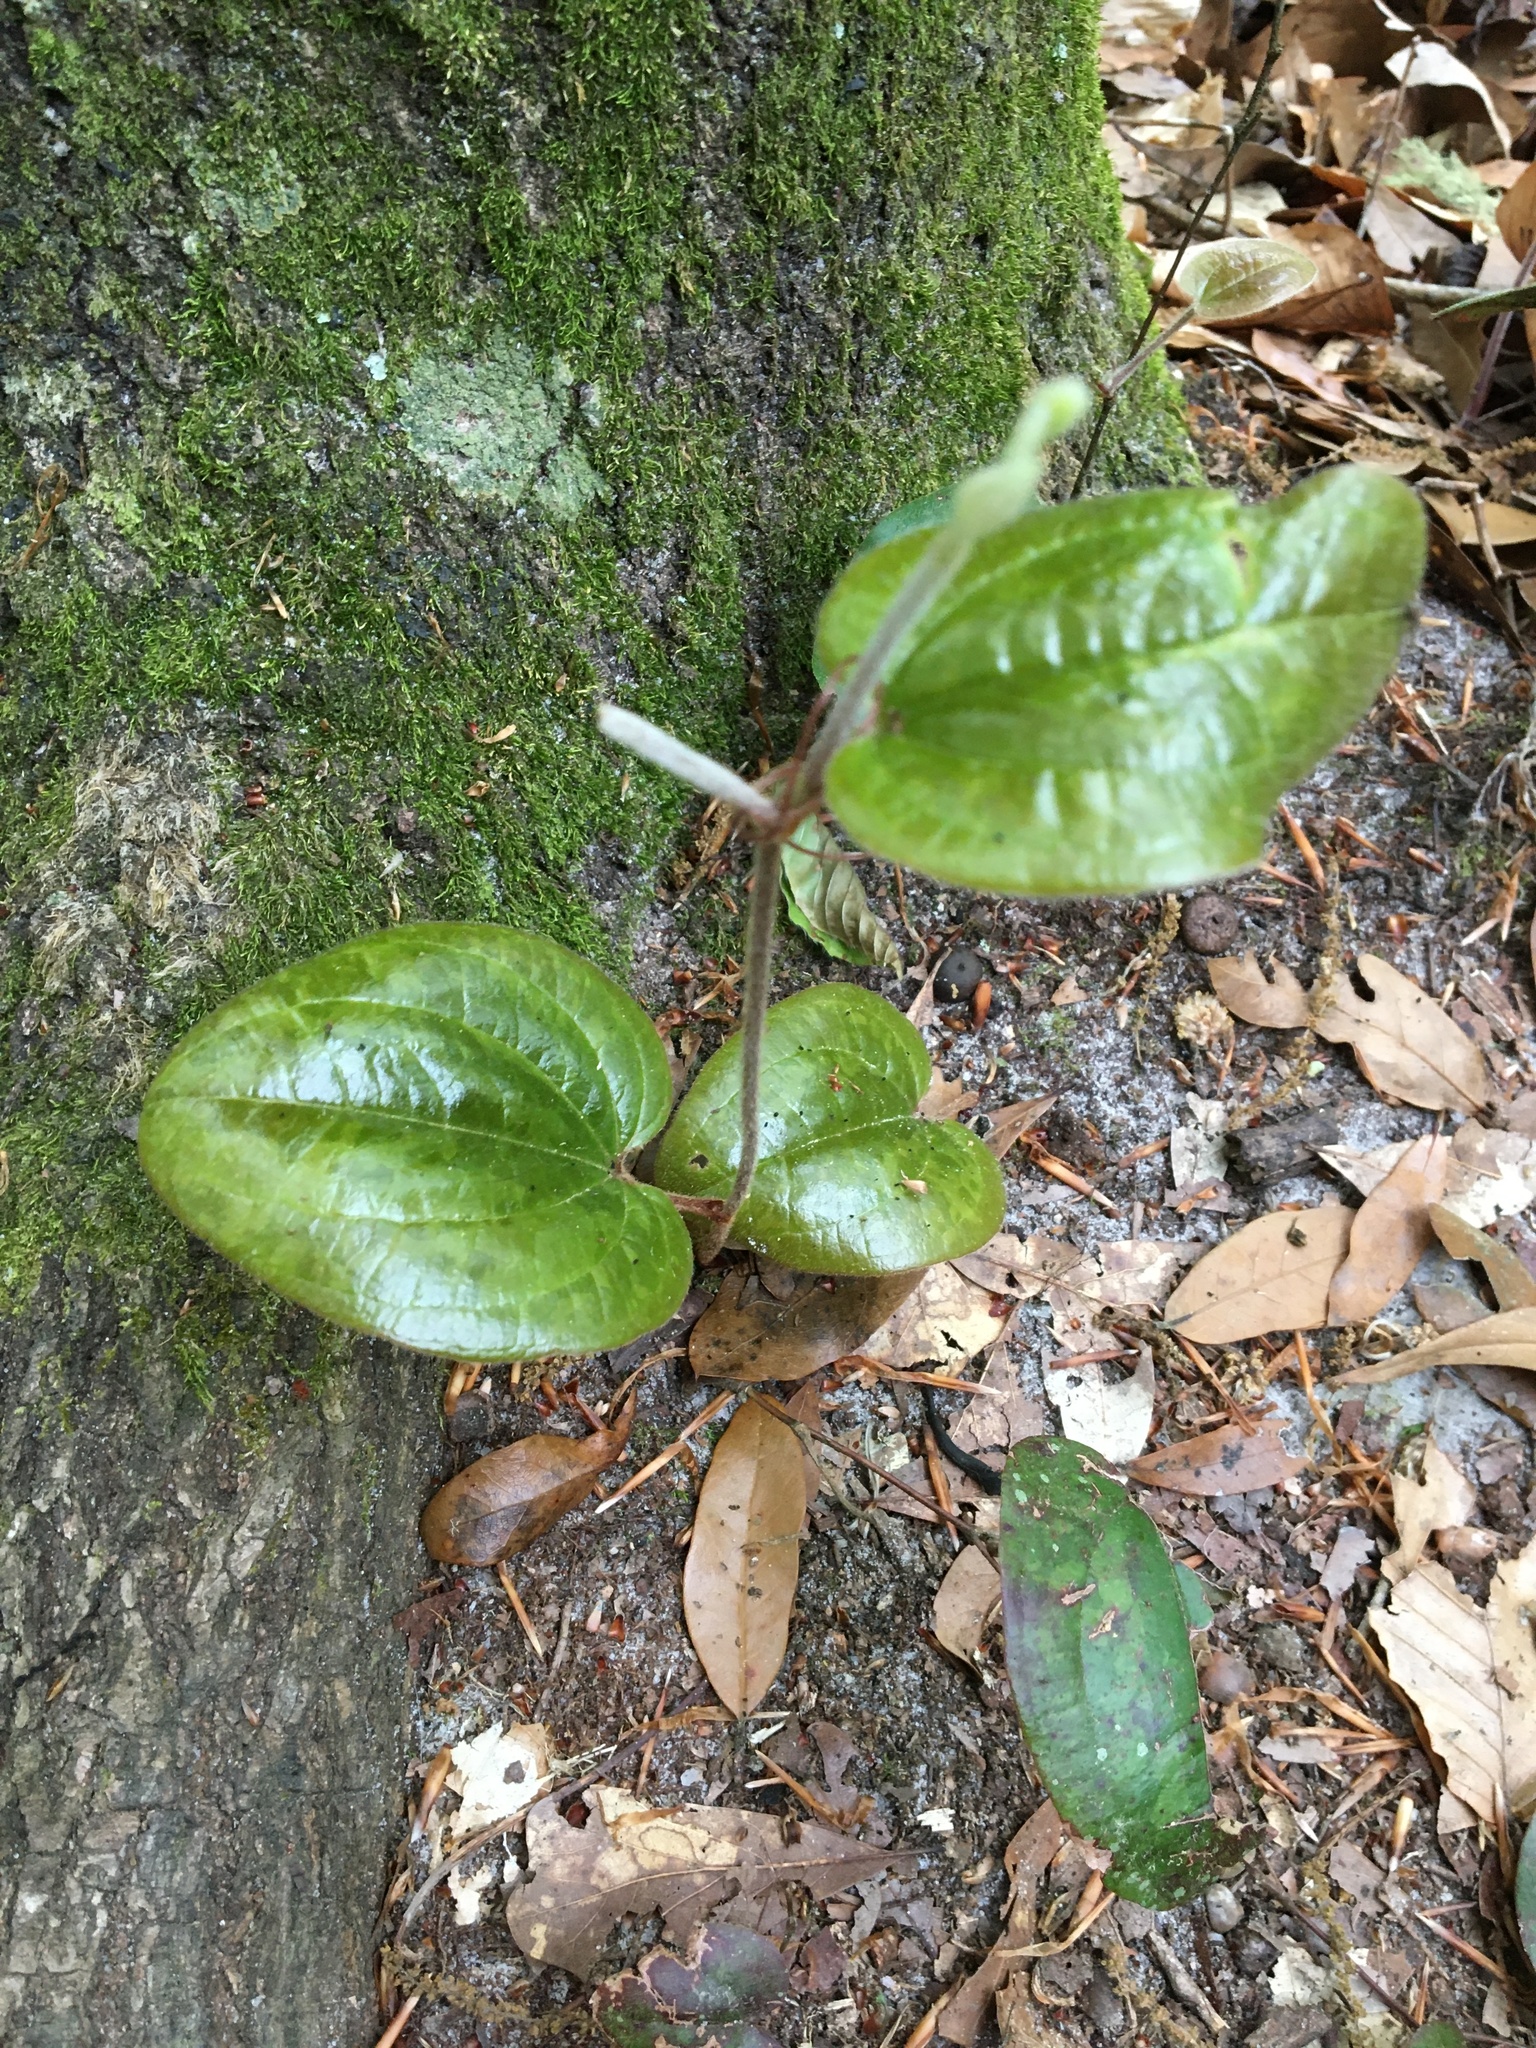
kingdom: Plantae
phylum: Tracheophyta
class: Liliopsida
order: Liliales
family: Smilacaceae
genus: Smilax
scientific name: Smilax pumila
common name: Sarsaparilla-vine
